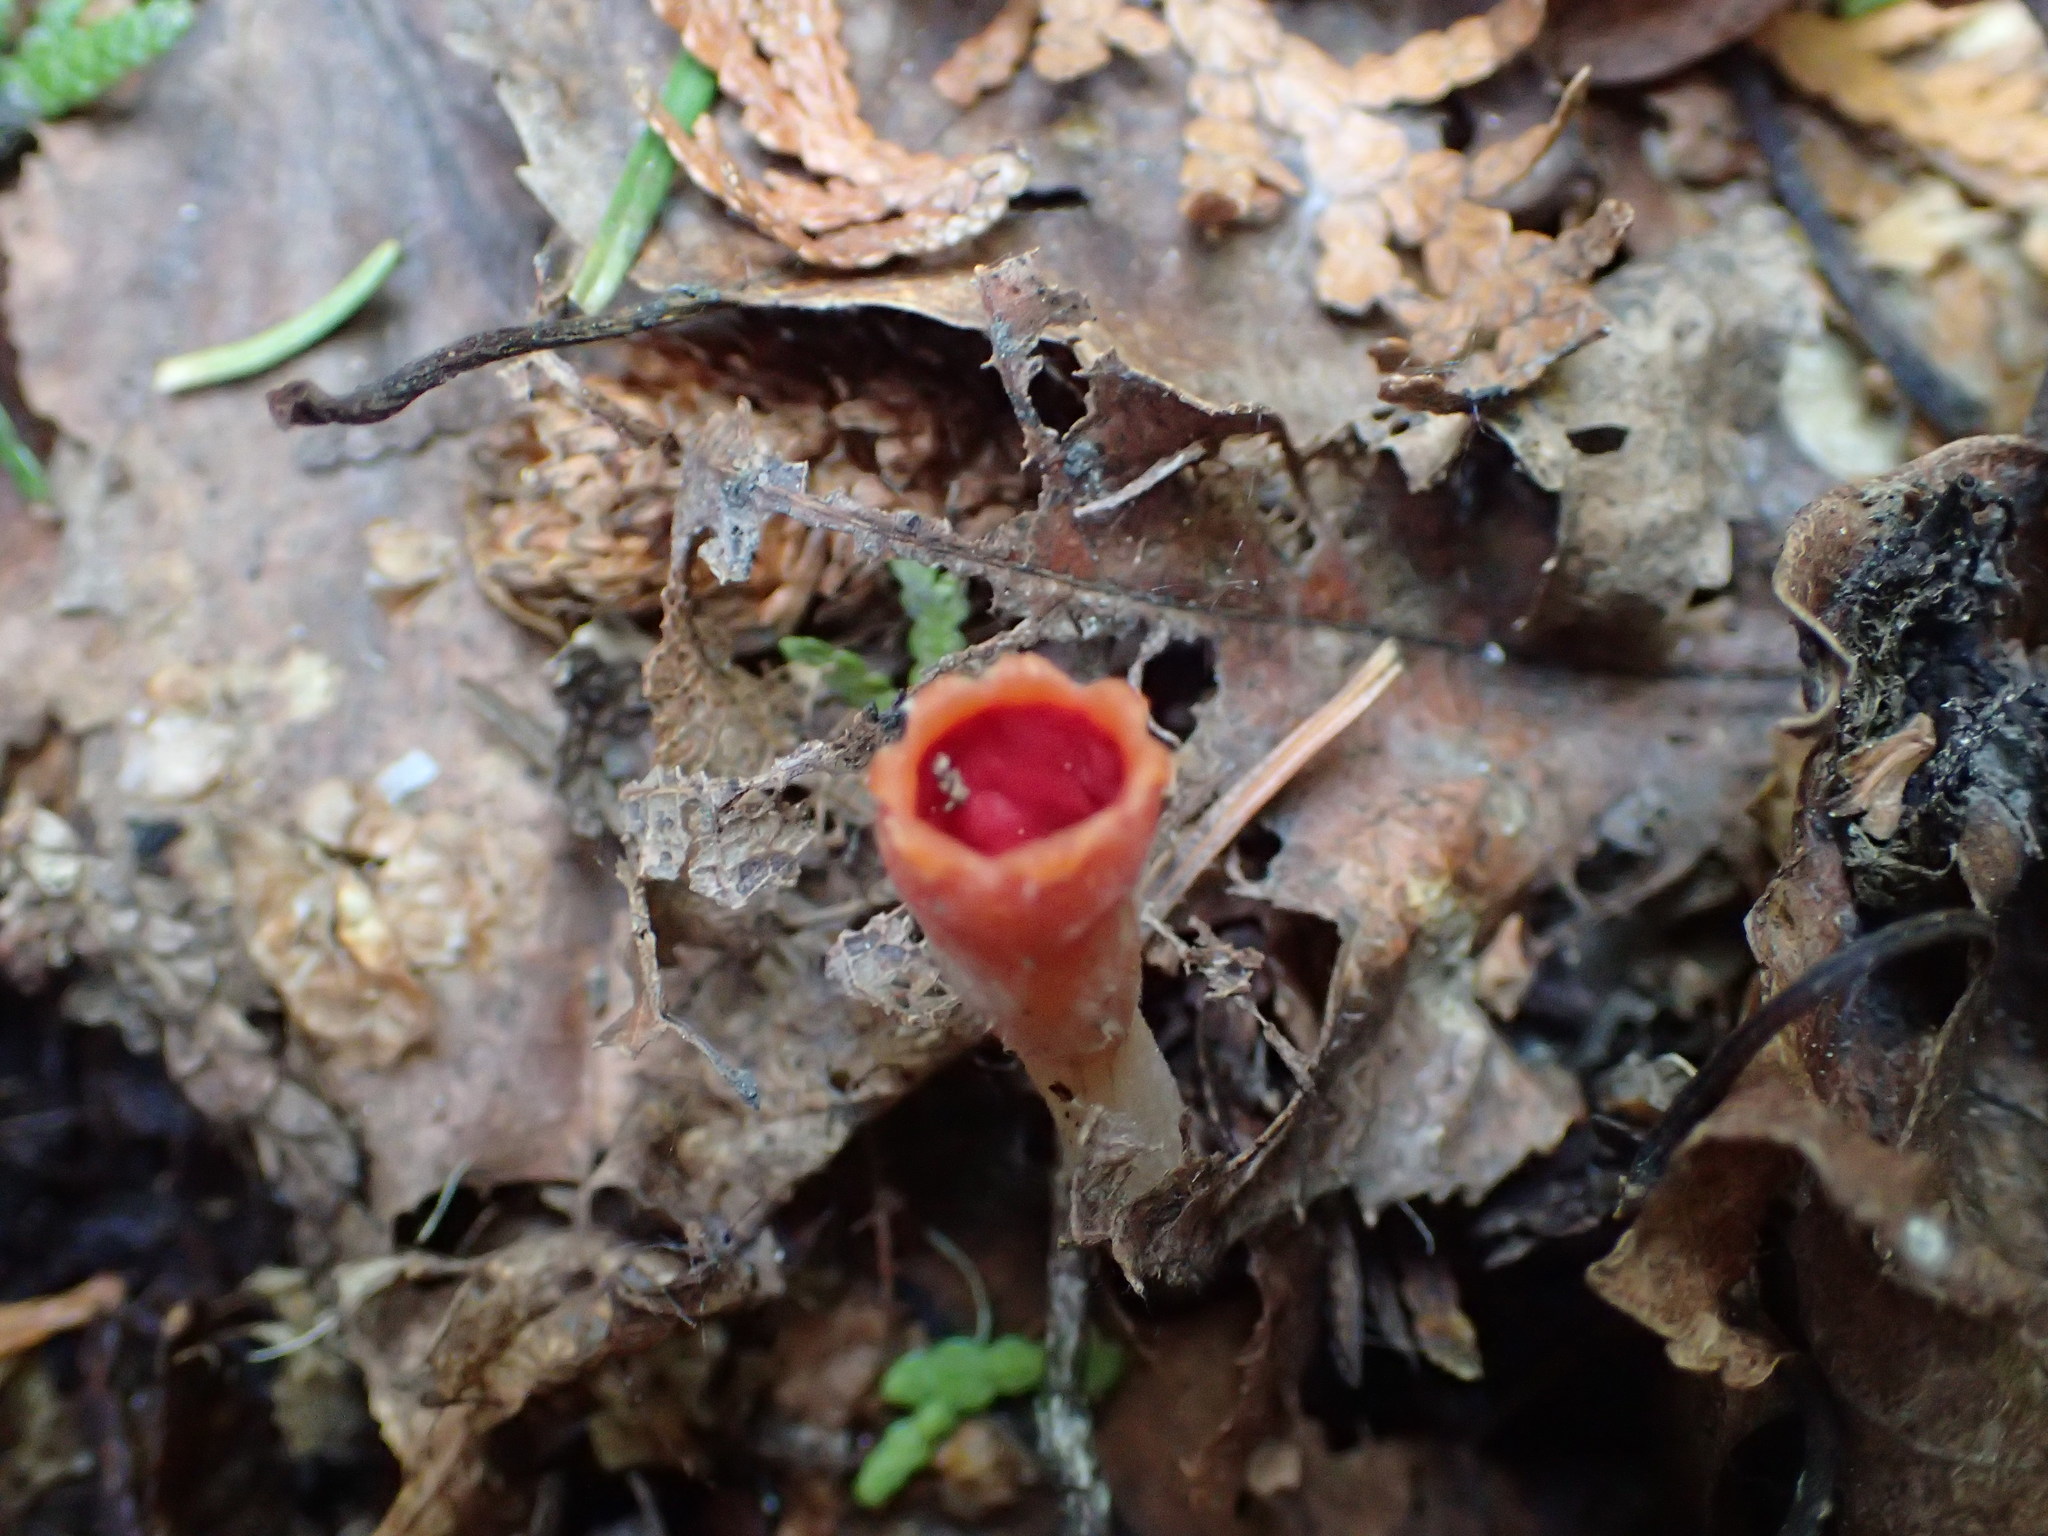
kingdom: Fungi
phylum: Ascomycota
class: Pezizomycetes
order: Pezizales
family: Sarcoscyphaceae
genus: Microstoma
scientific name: Microstoma protractum
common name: Rosy goblet
